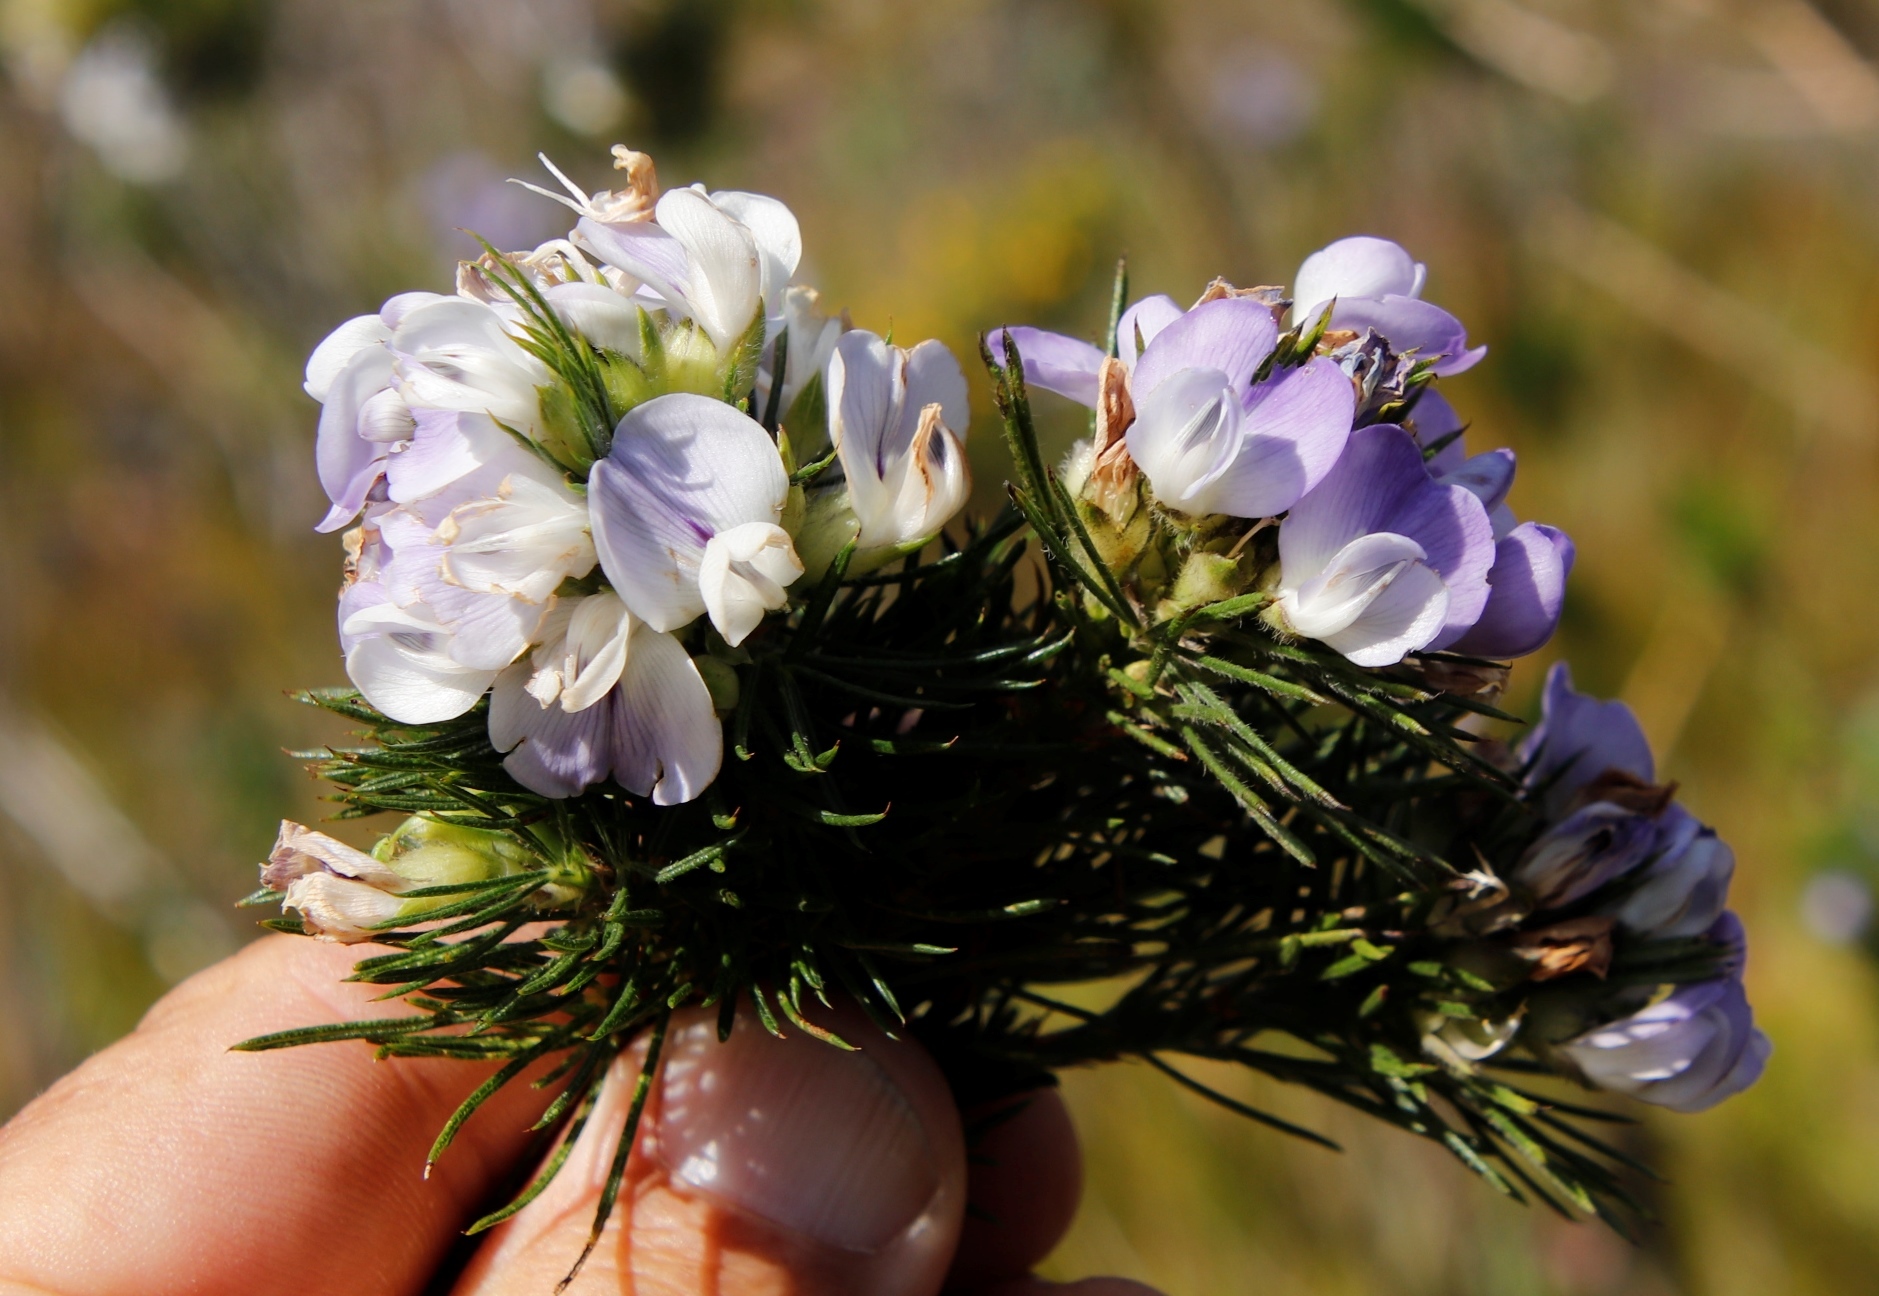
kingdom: Plantae
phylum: Tracheophyta
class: Magnoliopsida
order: Fabales
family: Fabaceae
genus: Psoralea
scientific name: Psoralea ivumba
